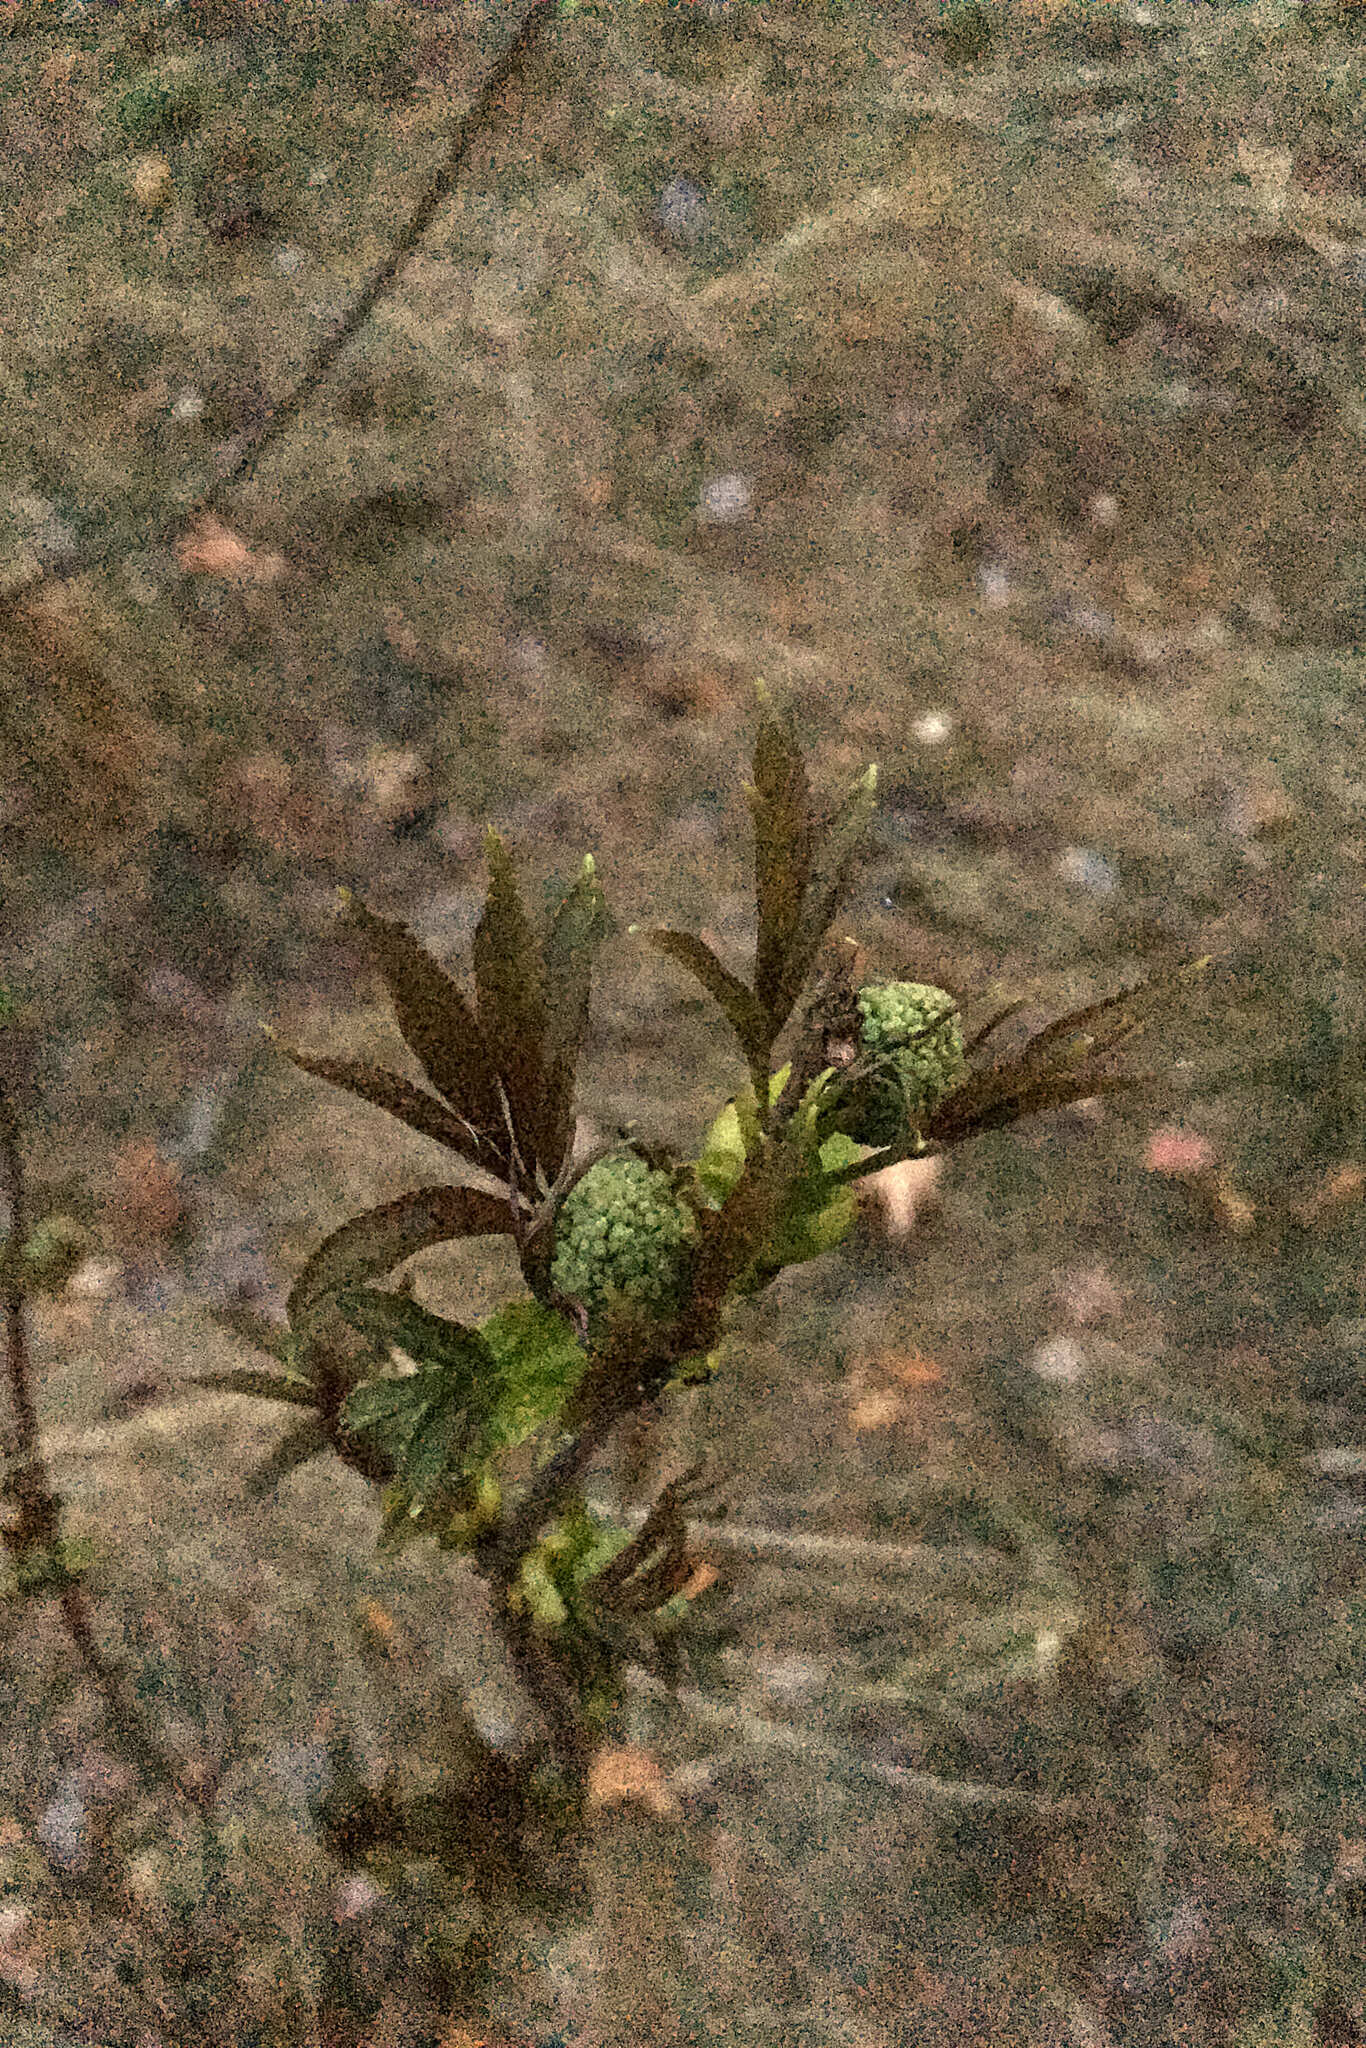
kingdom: Plantae
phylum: Tracheophyta
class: Magnoliopsida
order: Dipsacales
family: Viburnaceae
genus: Sambucus
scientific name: Sambucus racemosa
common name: Red-berried elder
